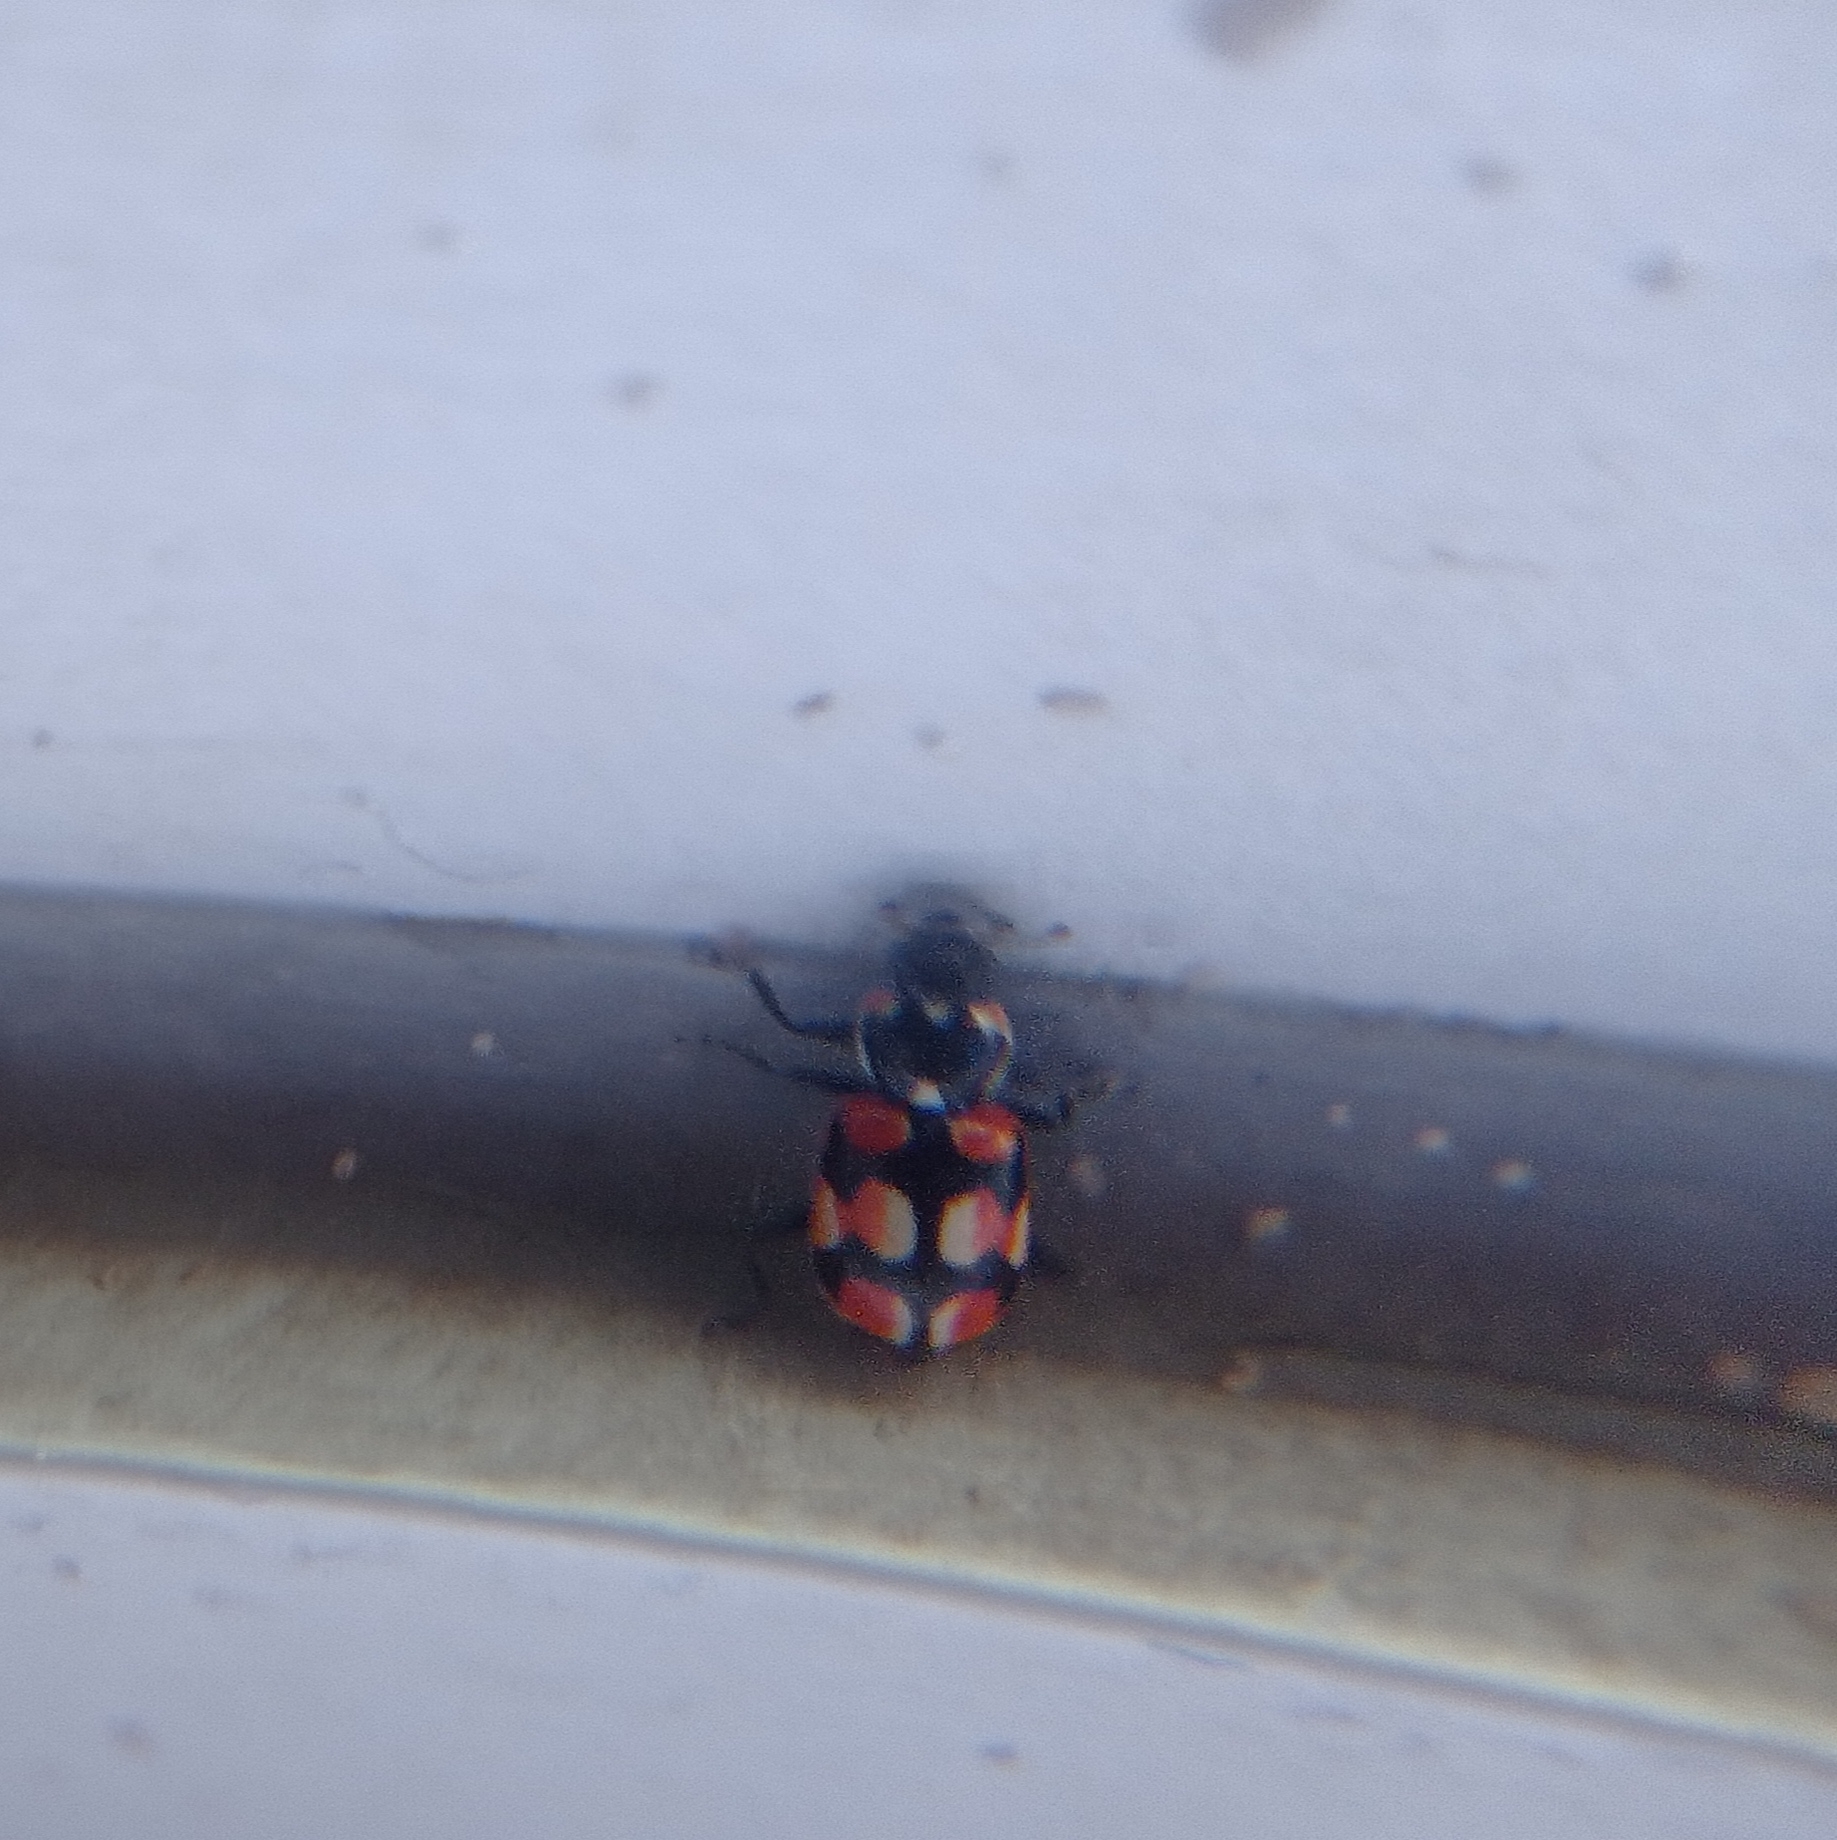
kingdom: Animalia
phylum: Arthropoda
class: Insecta
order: Coleoptera
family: Coccinellidae
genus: Eriopis
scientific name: Eriopis chilensis
